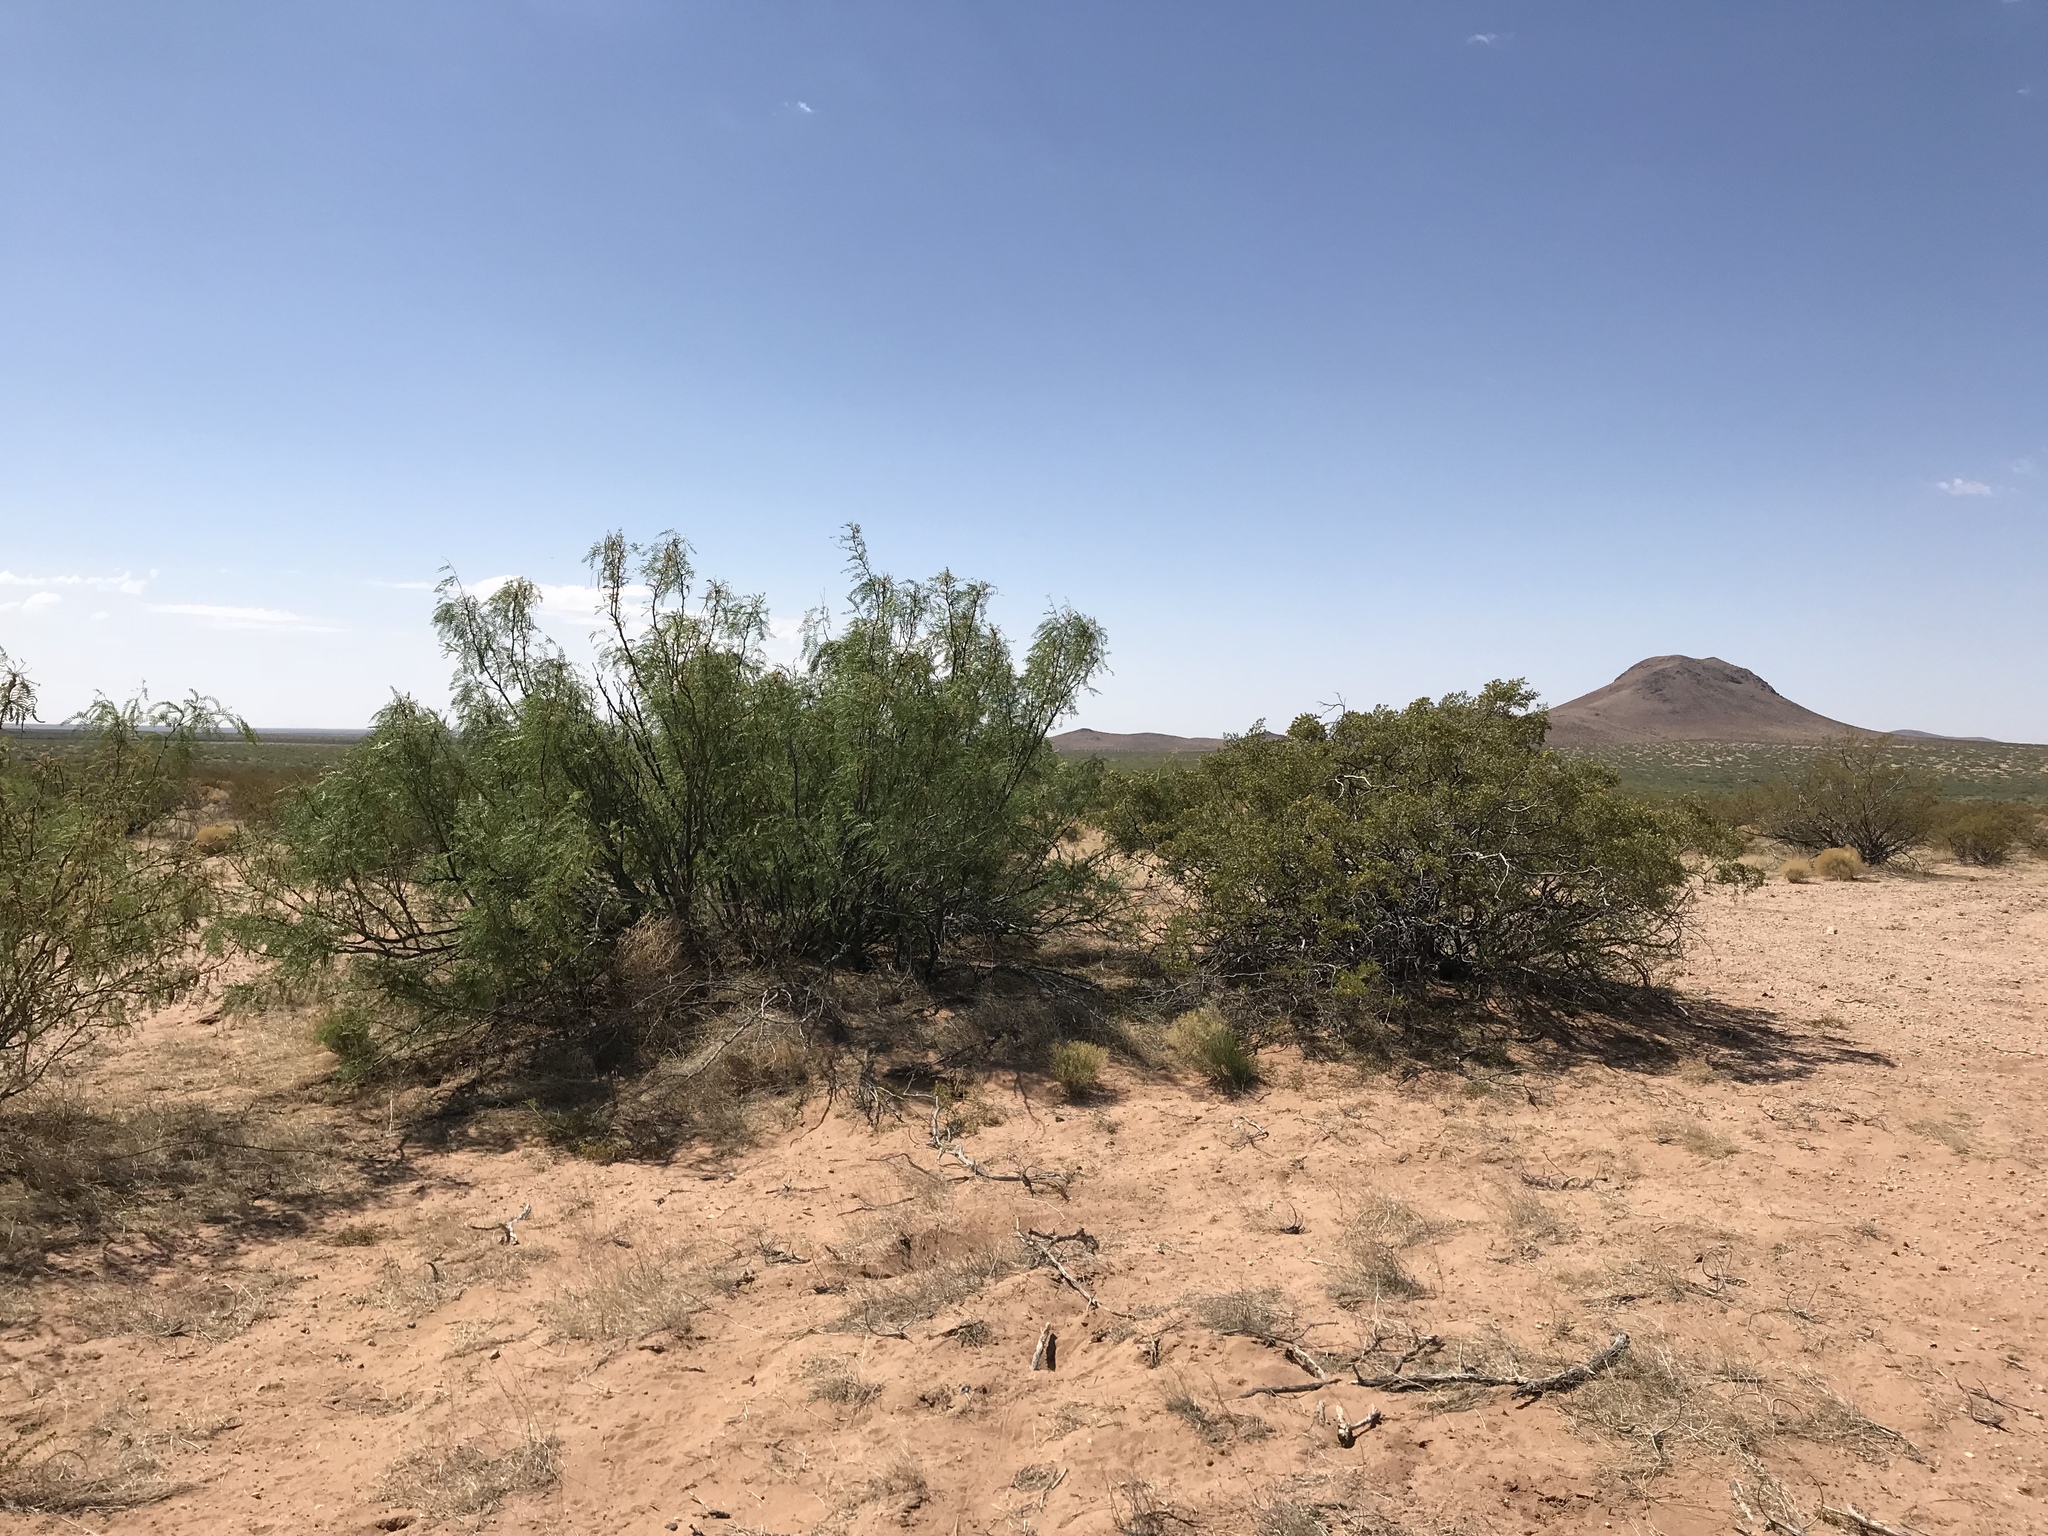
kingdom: Plantae
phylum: Tracheophyta
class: Magnoliopsida
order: Zygophyllales
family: Zygophyllaceae
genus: Larrea
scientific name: Larrea tridentata
